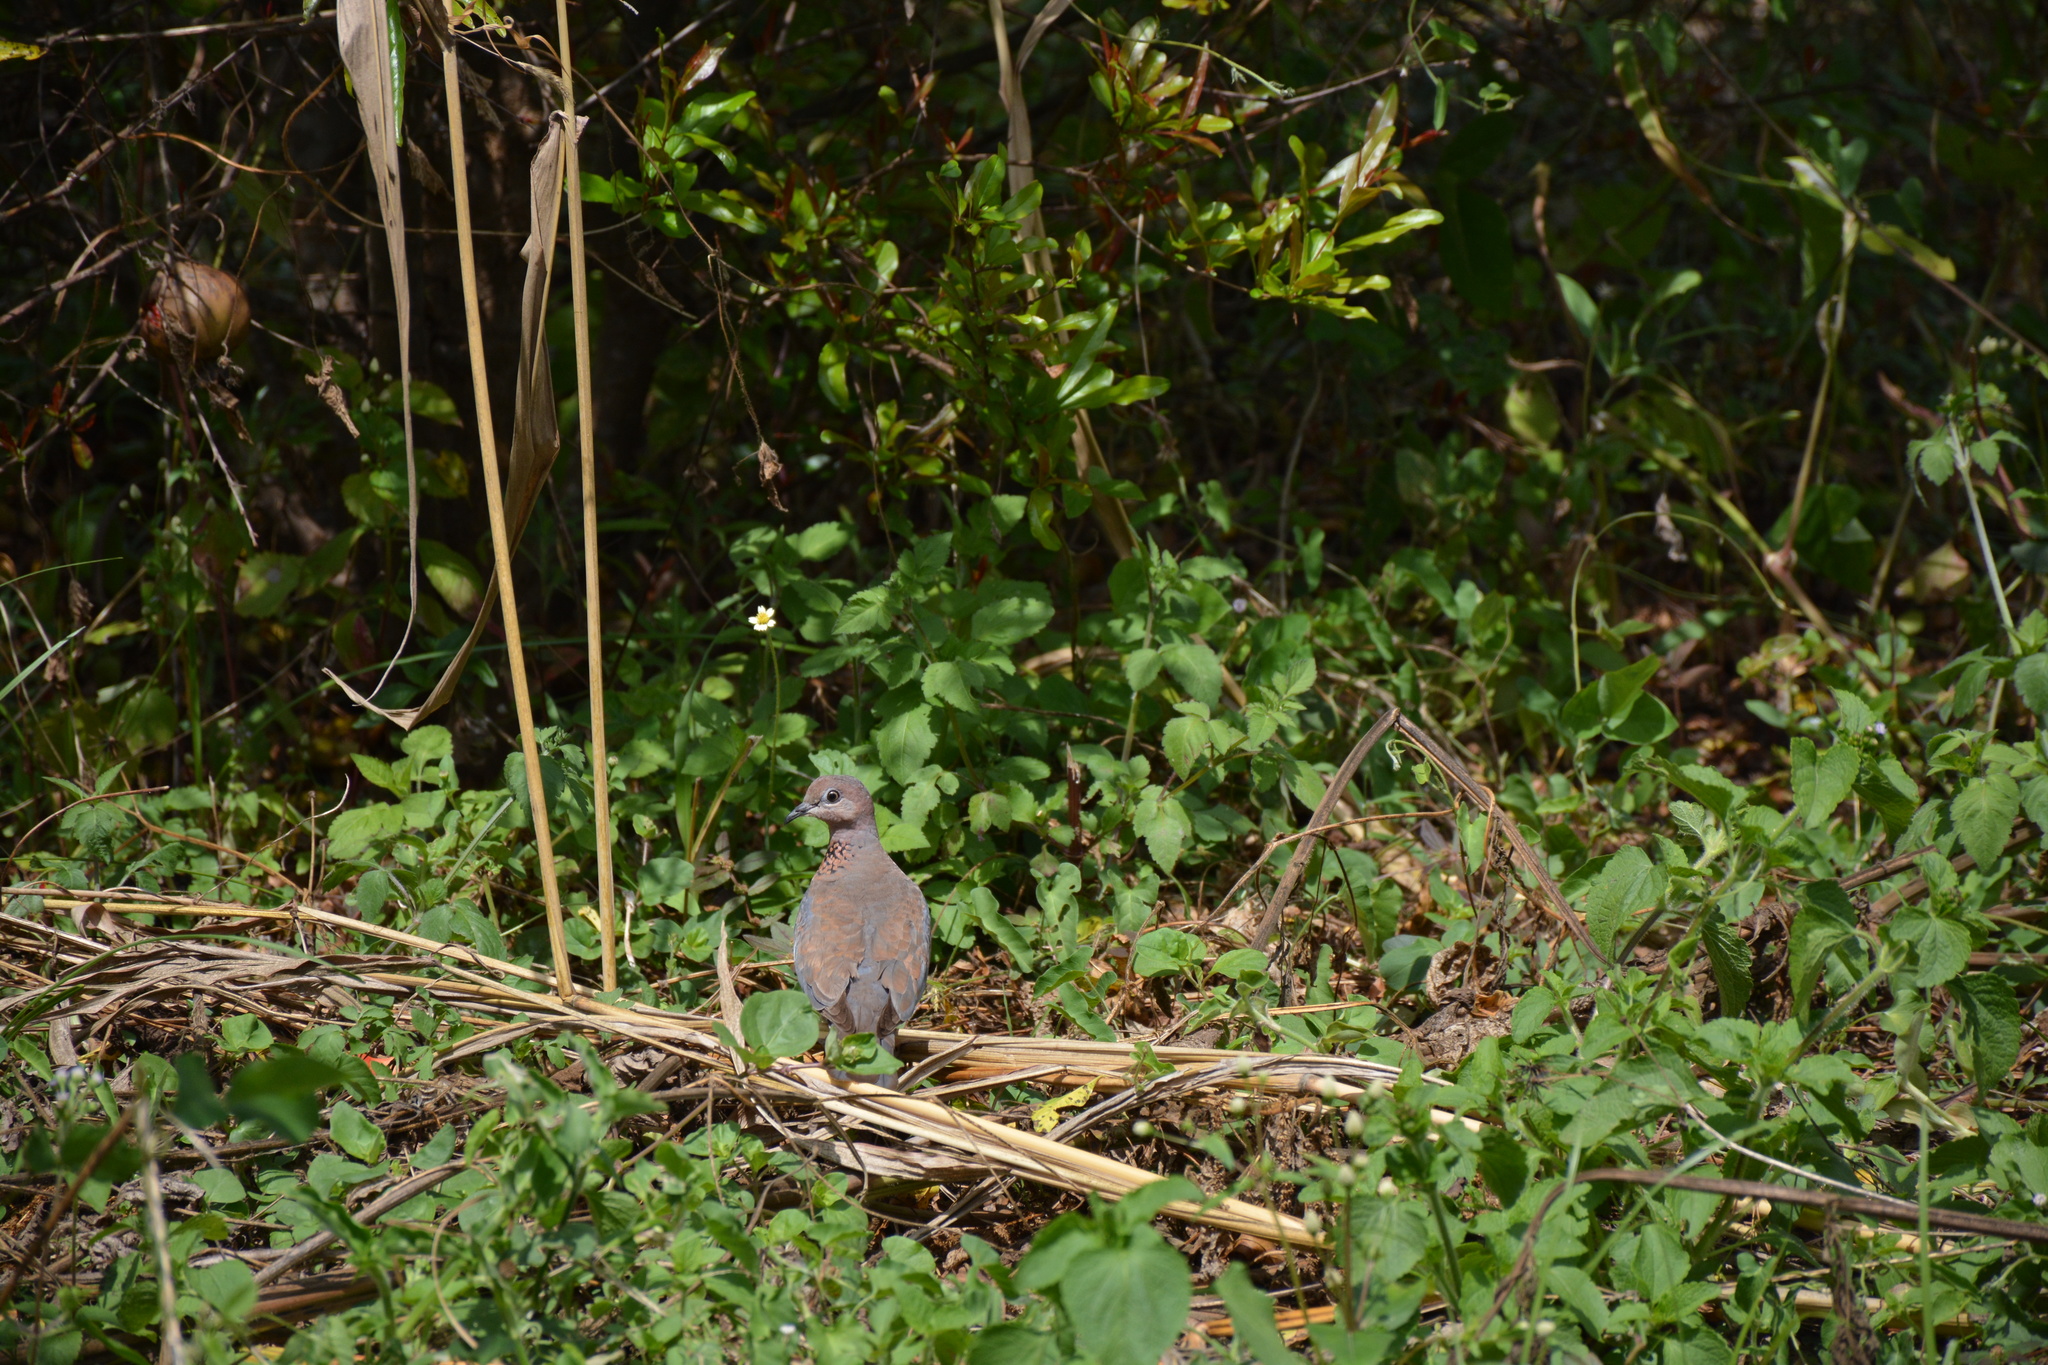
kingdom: Animalia
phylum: Chordata
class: Aves
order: Columbiformes
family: Columbidae
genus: Spilopelia
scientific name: Spilopelia senegalensis
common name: Laughing dove
